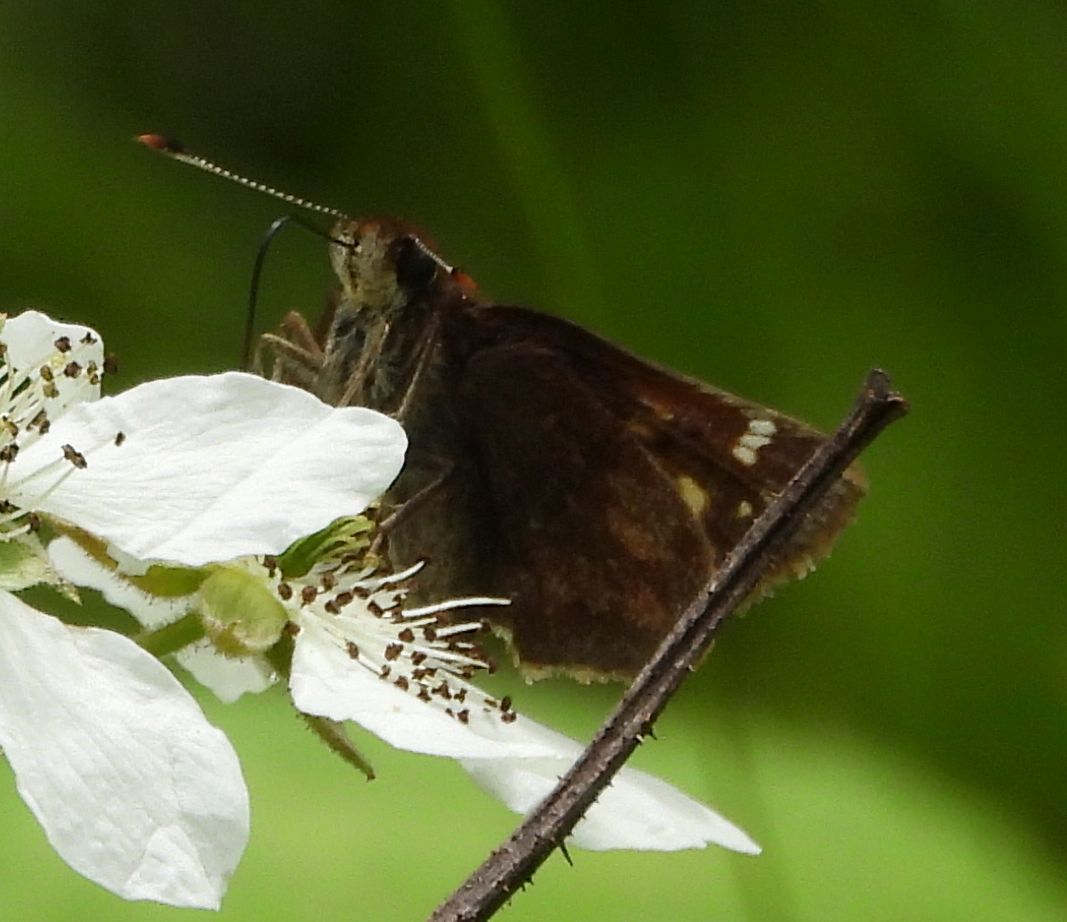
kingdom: Animalia
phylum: Arthropoda
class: Insecta
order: Lepidoptera
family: Hesperiidae
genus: Lon
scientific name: Lon hobomok
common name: Hobomok skipper
